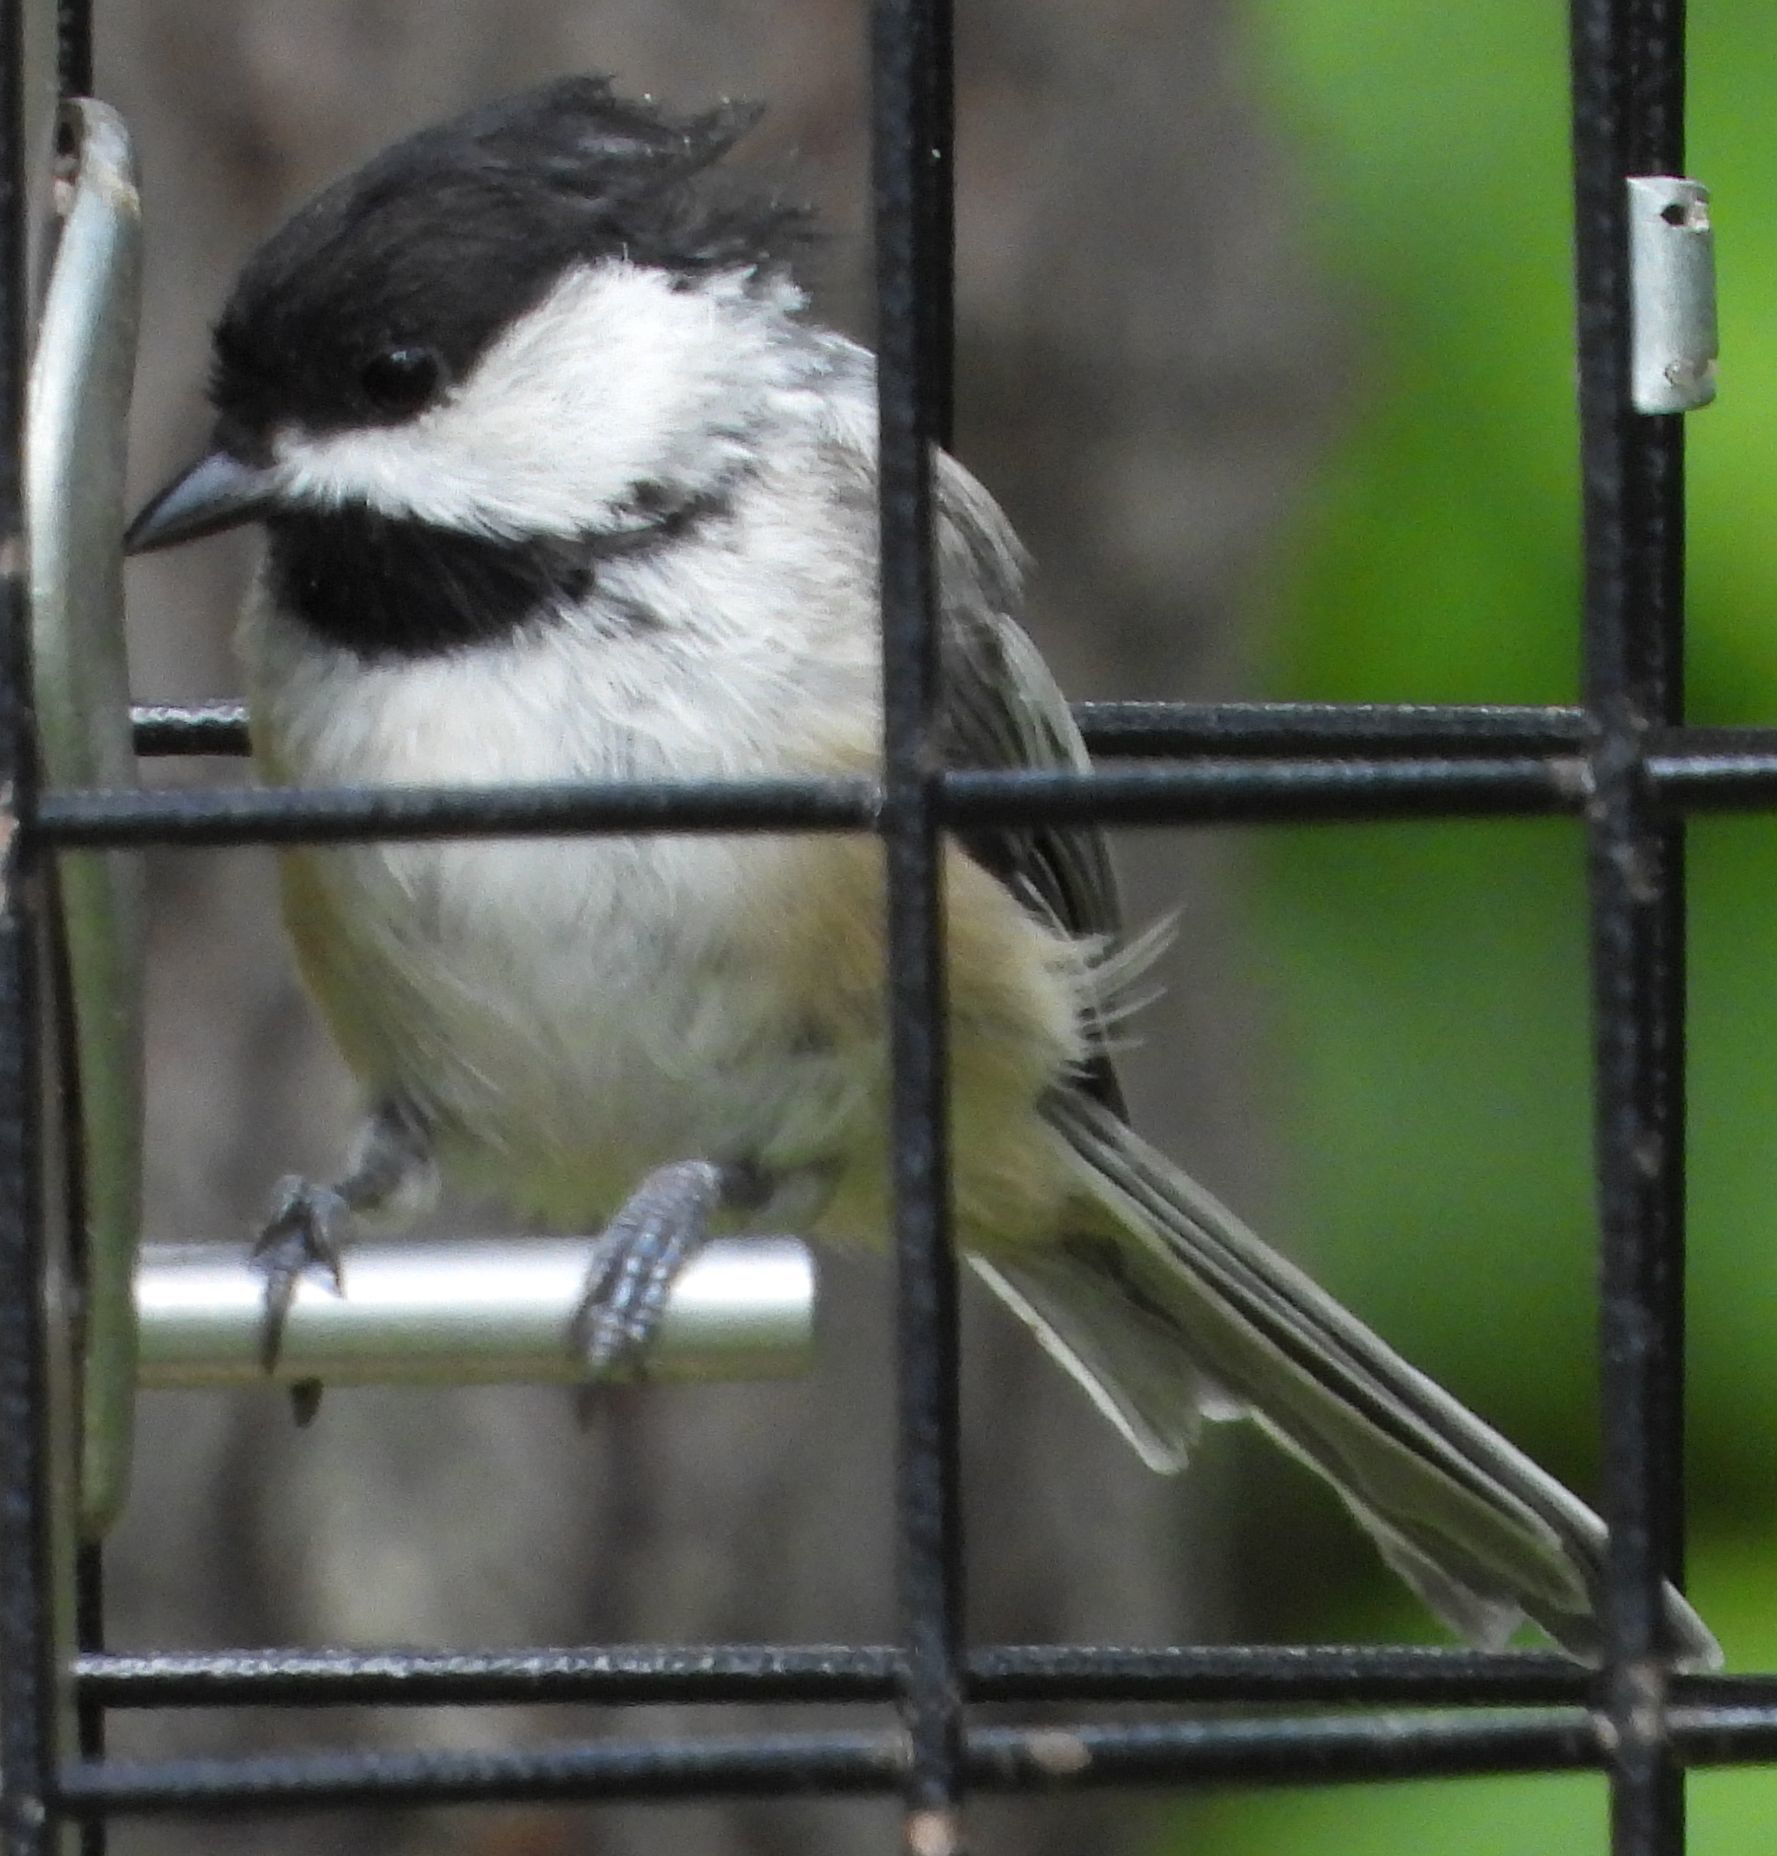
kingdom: Animalia
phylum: Chordata
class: Aves
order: Passeriformes
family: Paridae
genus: Poecile
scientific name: Poecile atricapillus
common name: Black-capped chickadee
